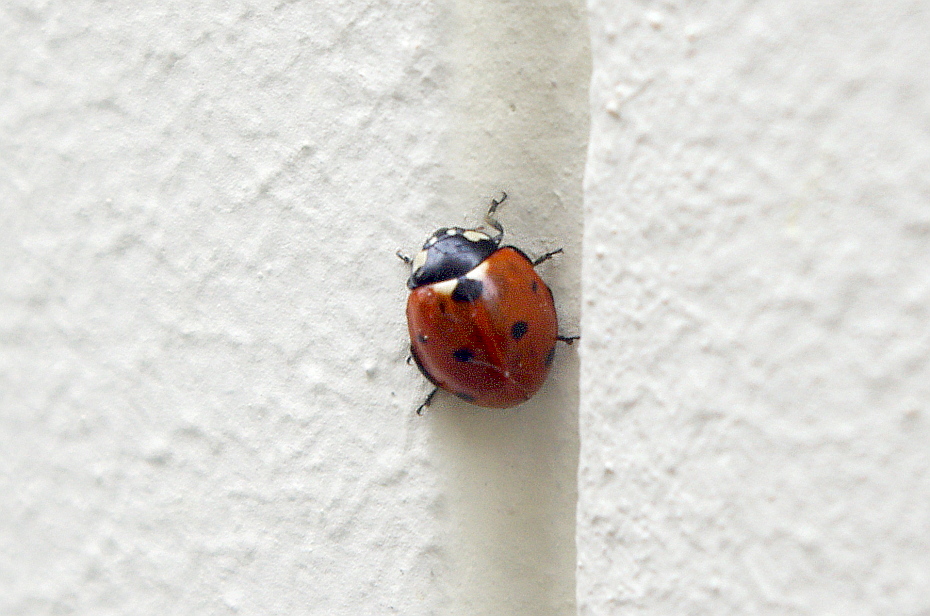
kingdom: Animalia
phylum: Arthropoda
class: Insecta
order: Coleoptera
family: Coccinellidae
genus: Coccinella
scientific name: Coccinella septempunctata
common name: Sevenspotted lady beetle
